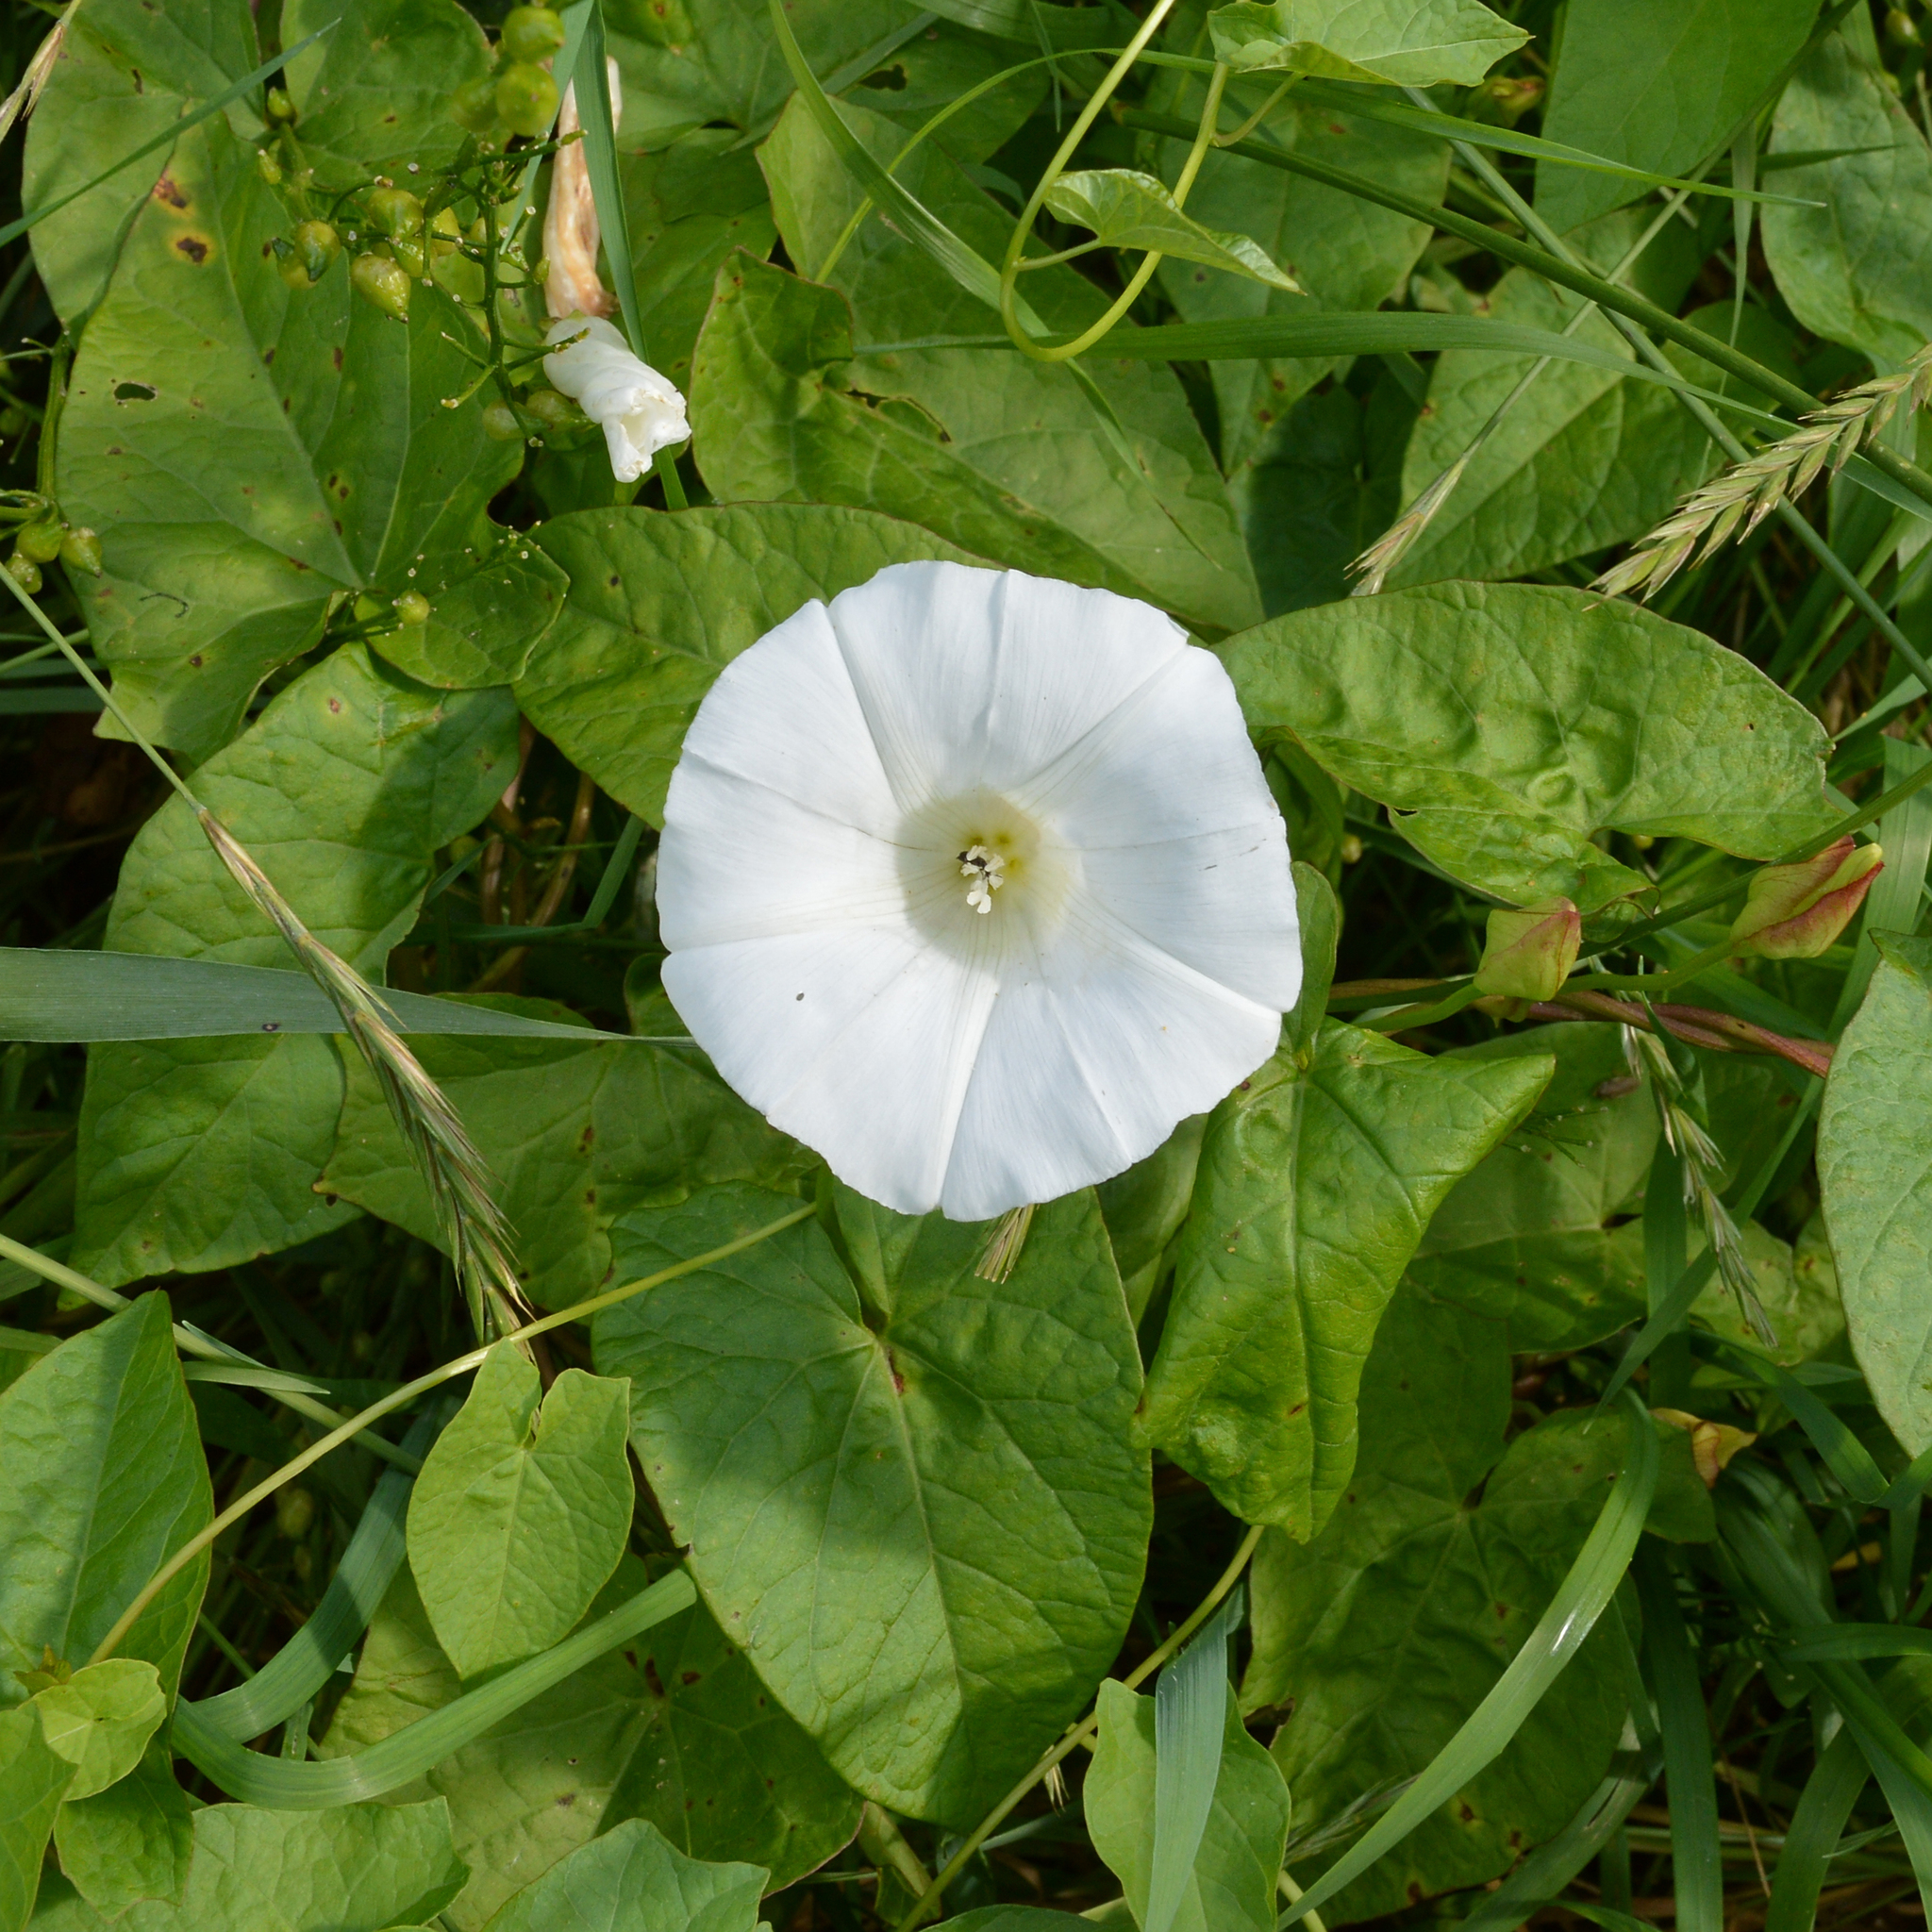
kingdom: Plantae
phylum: Tracheophyta
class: Magnoliopsida
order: Solanales
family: Convolvulaceae
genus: Calystegia
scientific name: Calystegia sepium
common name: Hedge bindweed
